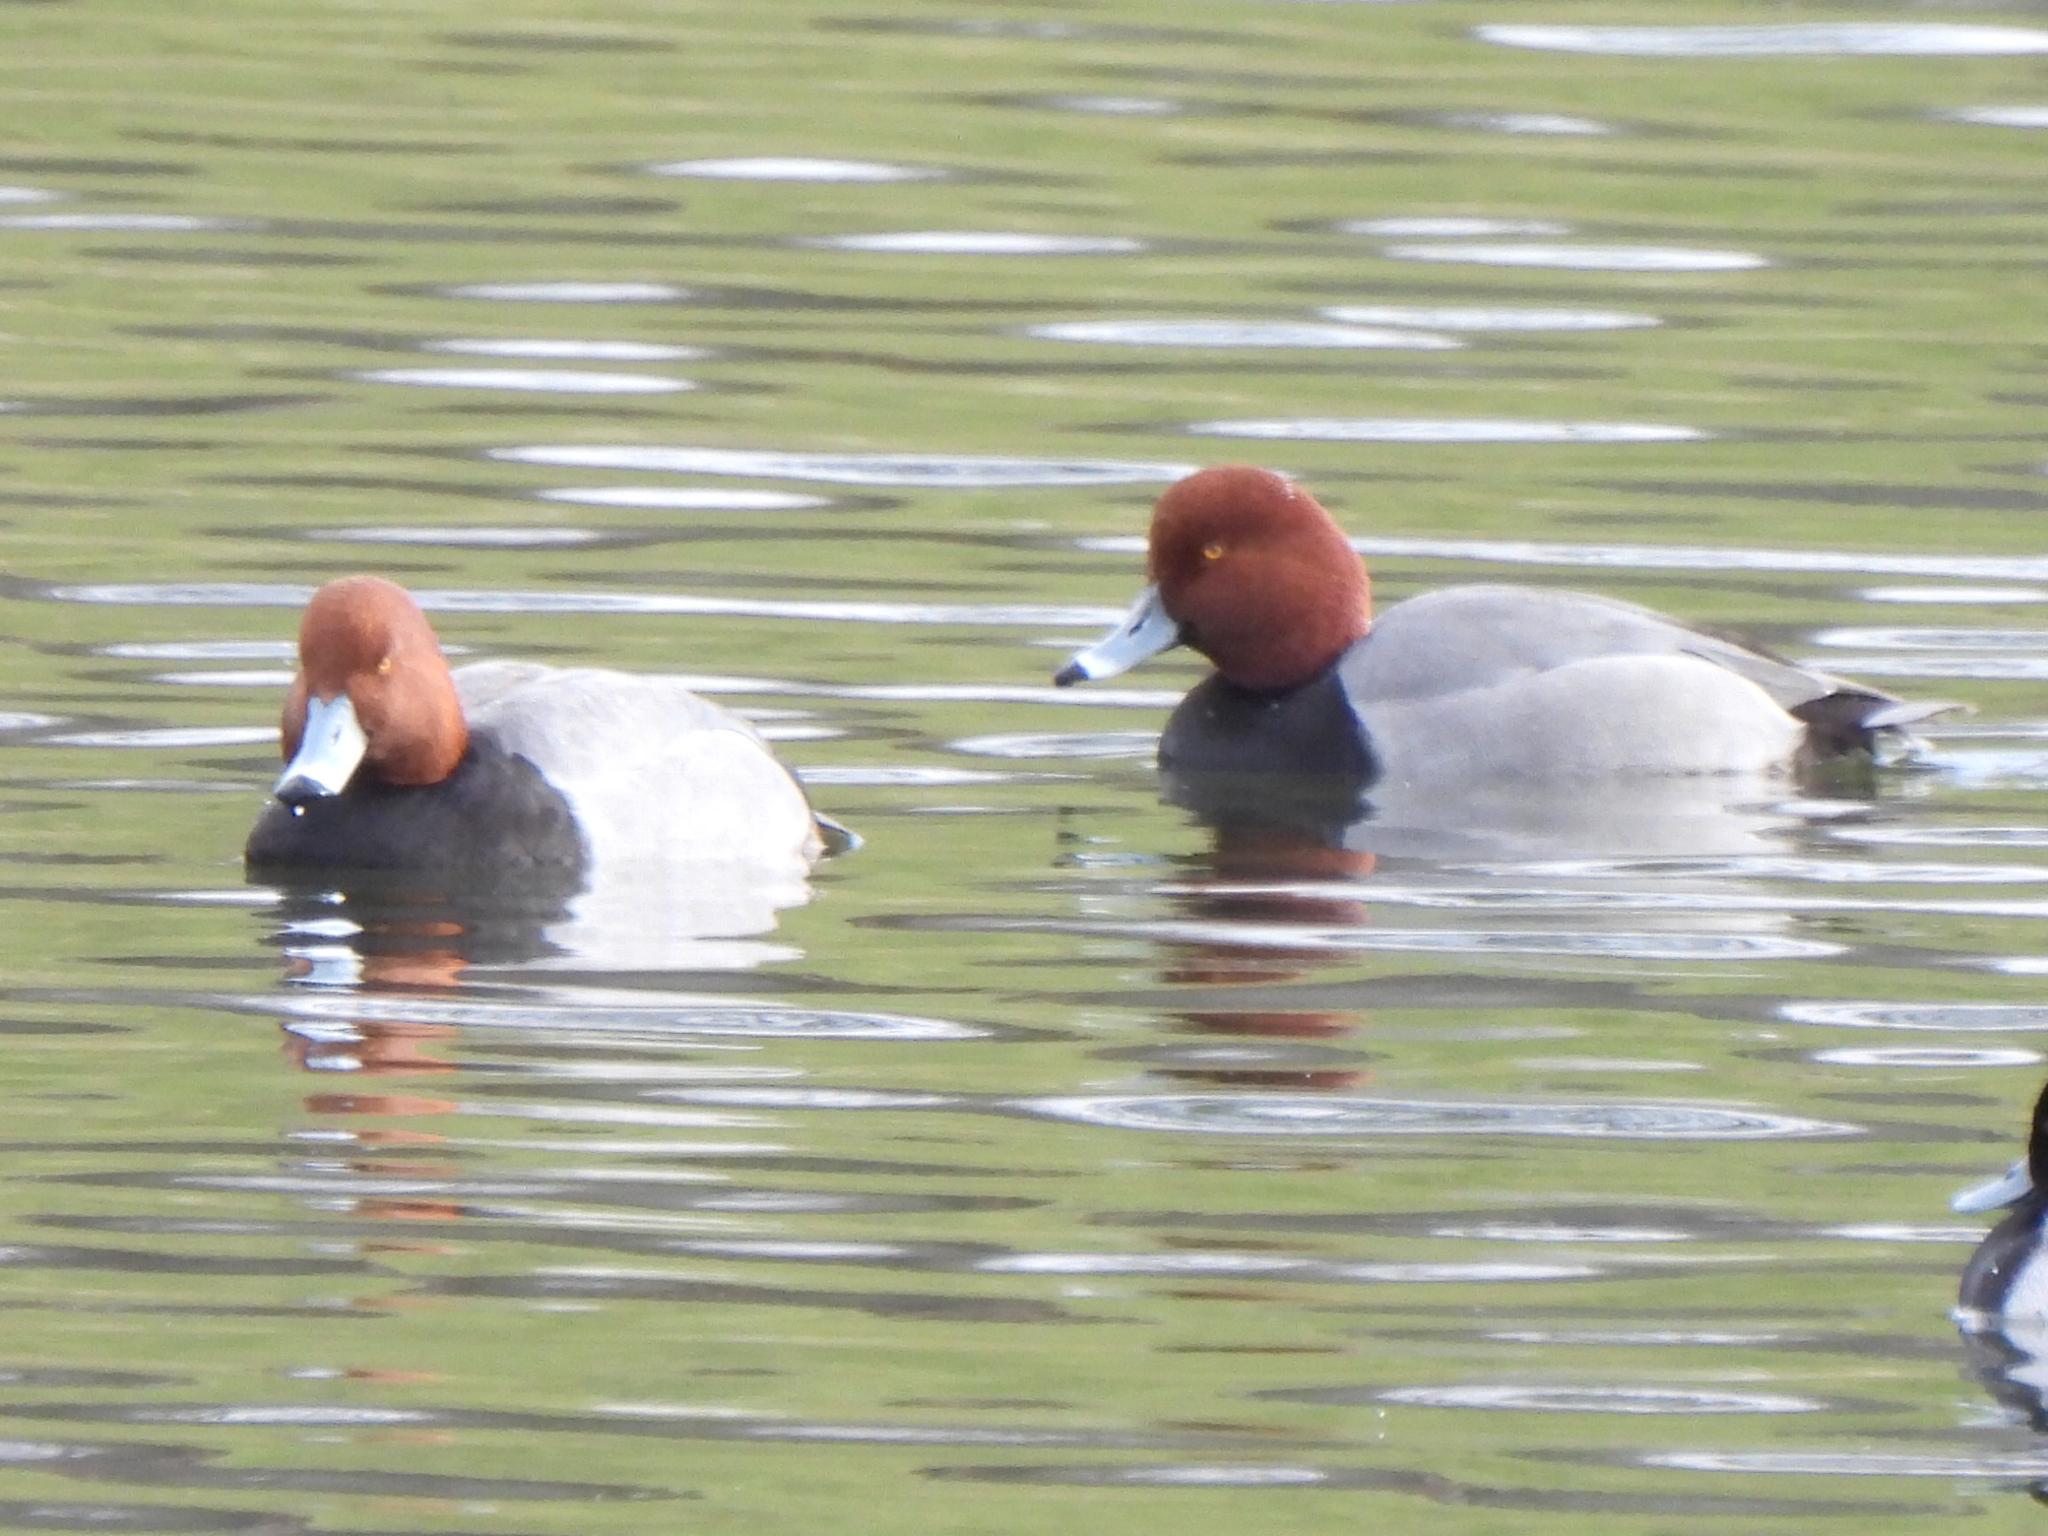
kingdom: Animalia
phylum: Chordata
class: Aves
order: Anseriformes
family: Anatidae
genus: Aythya
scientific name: Aythya americana
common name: Redhead
